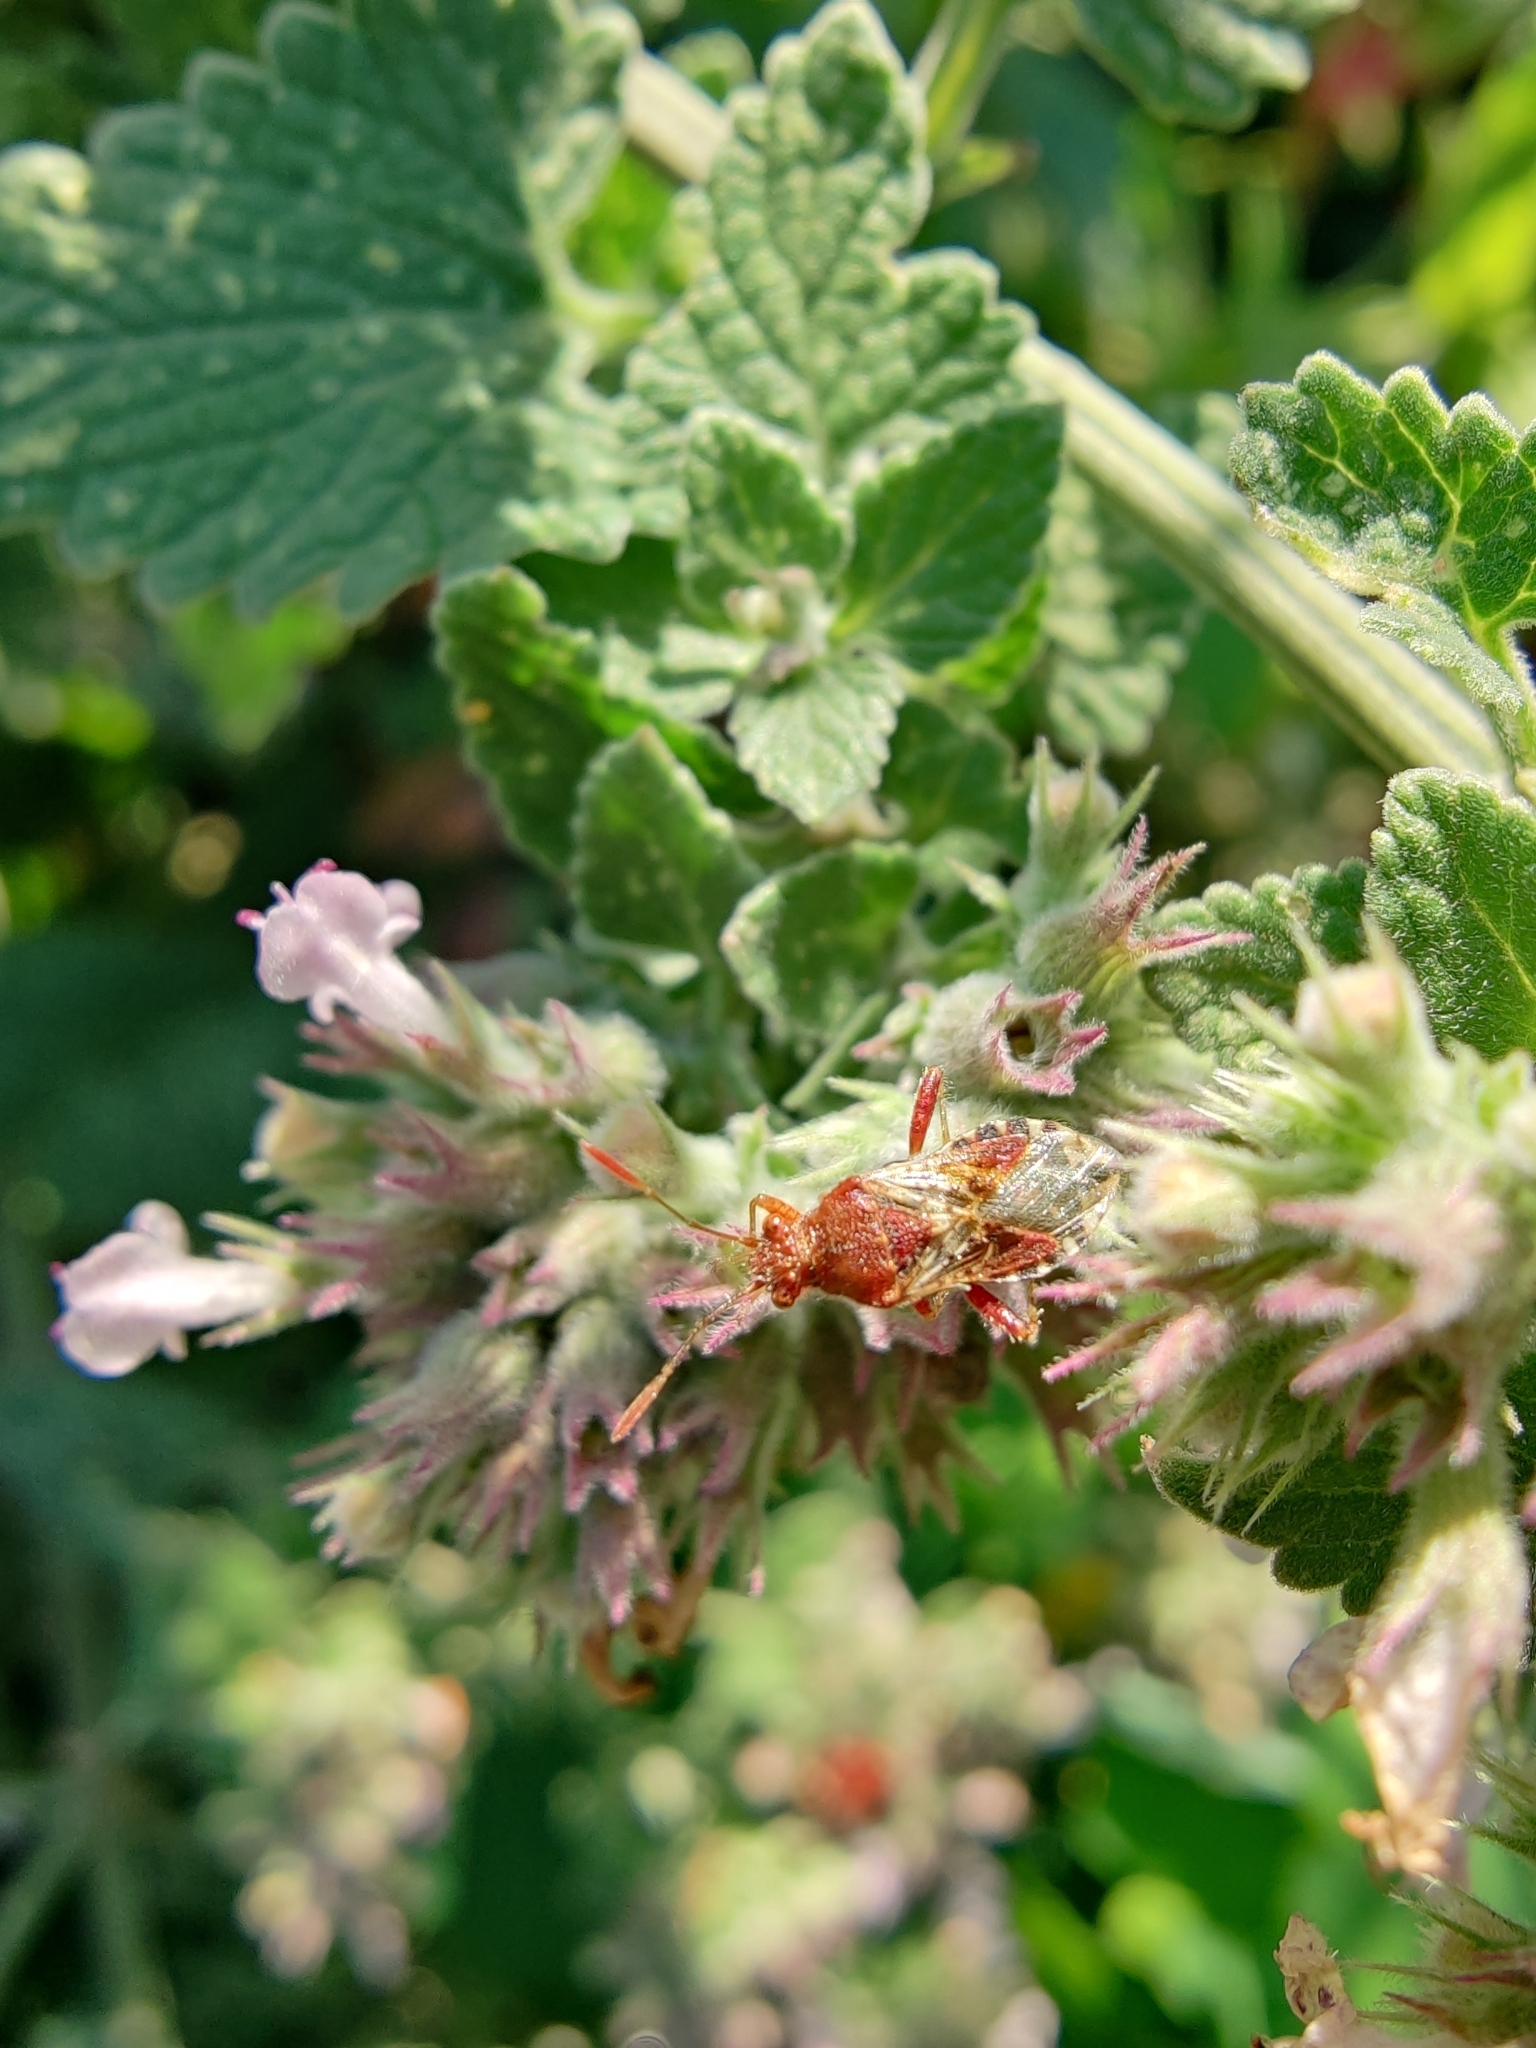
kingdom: Animalia
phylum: Arthropoda
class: Insecta
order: Hemiptera
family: Rhopalidae
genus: Rhopalus
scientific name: Rhopalus subrufus
